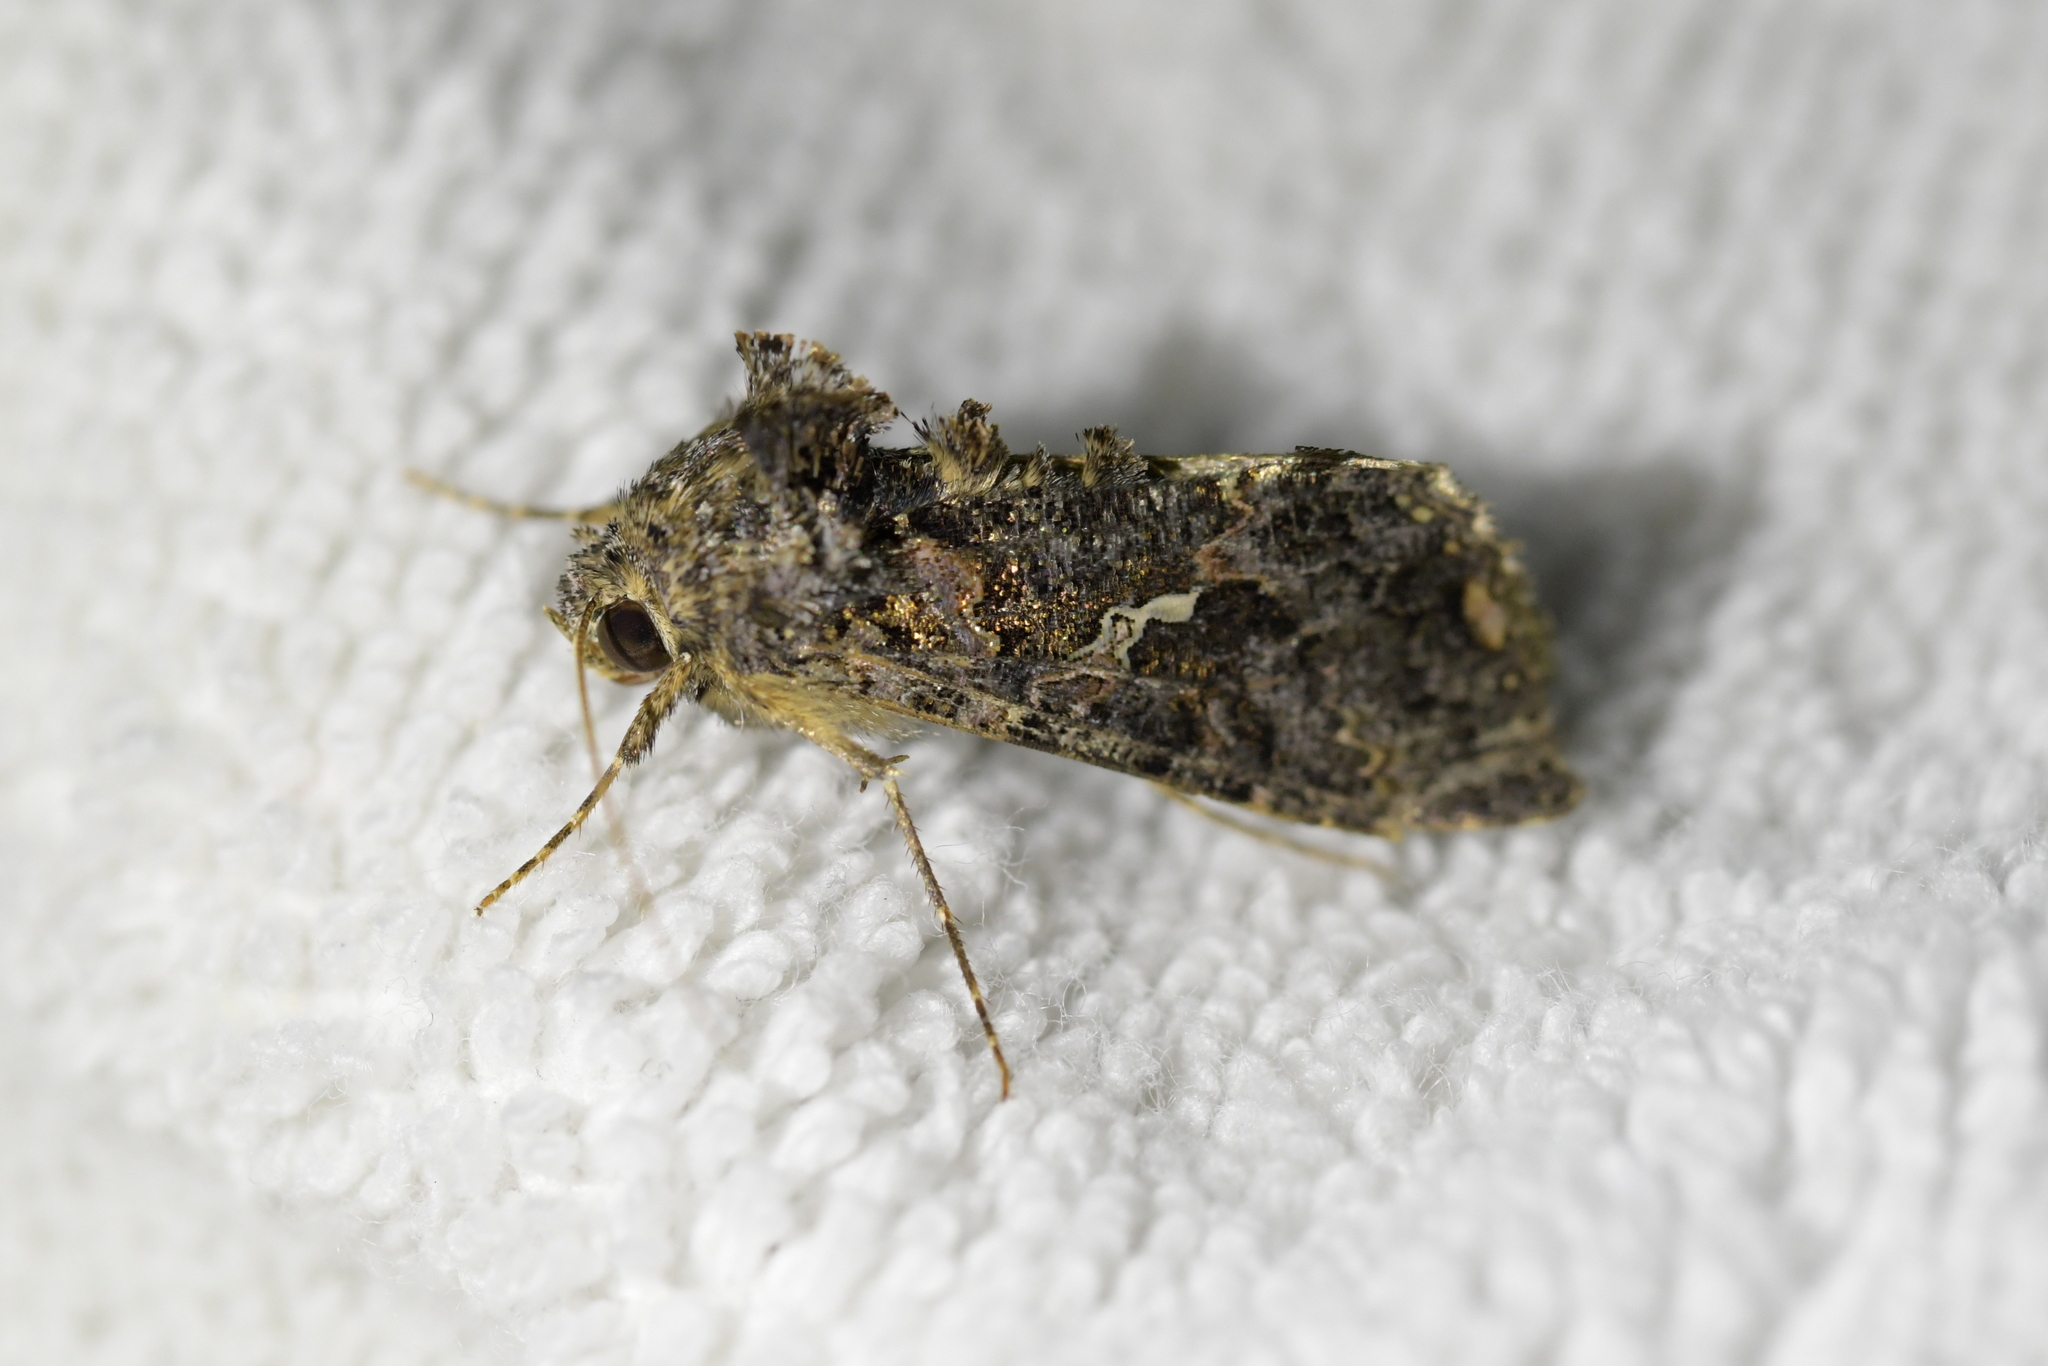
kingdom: Animalia
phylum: Arthropoda
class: Insecta
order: Lepidoptera
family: Noctuidae
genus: Ctenoplusia
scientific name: Ctenoplusia limbirena
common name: Scar bank gem
